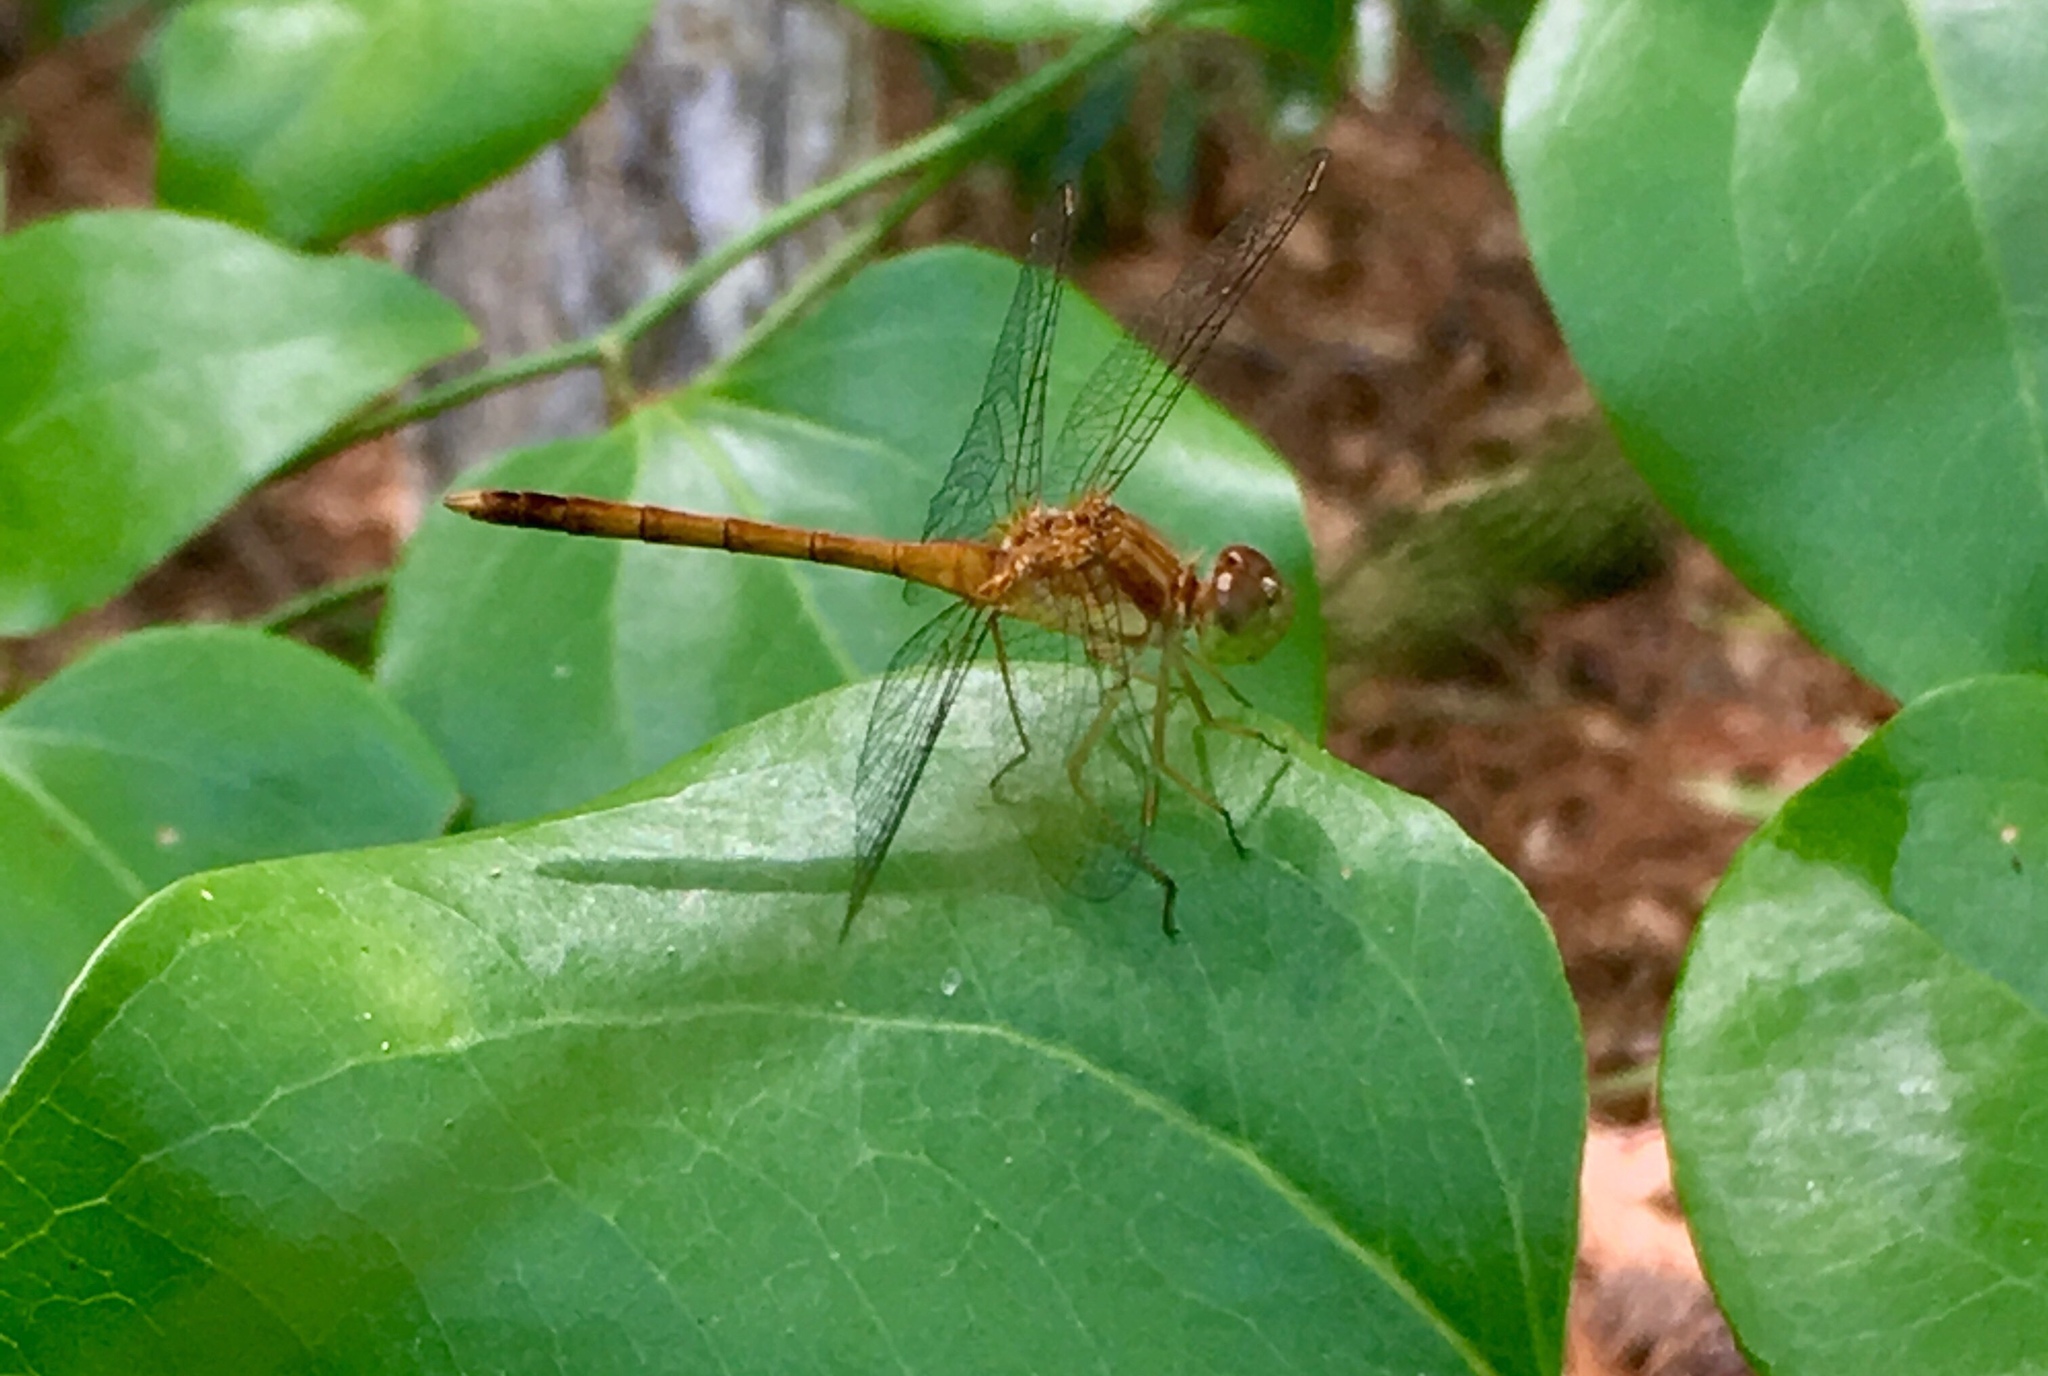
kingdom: Animalia
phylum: Arthropoda
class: Insecta
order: Odonata
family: Libellulidae
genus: Sympetrum
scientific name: Sympetrum vicinum
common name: Autumn meadowhawk
